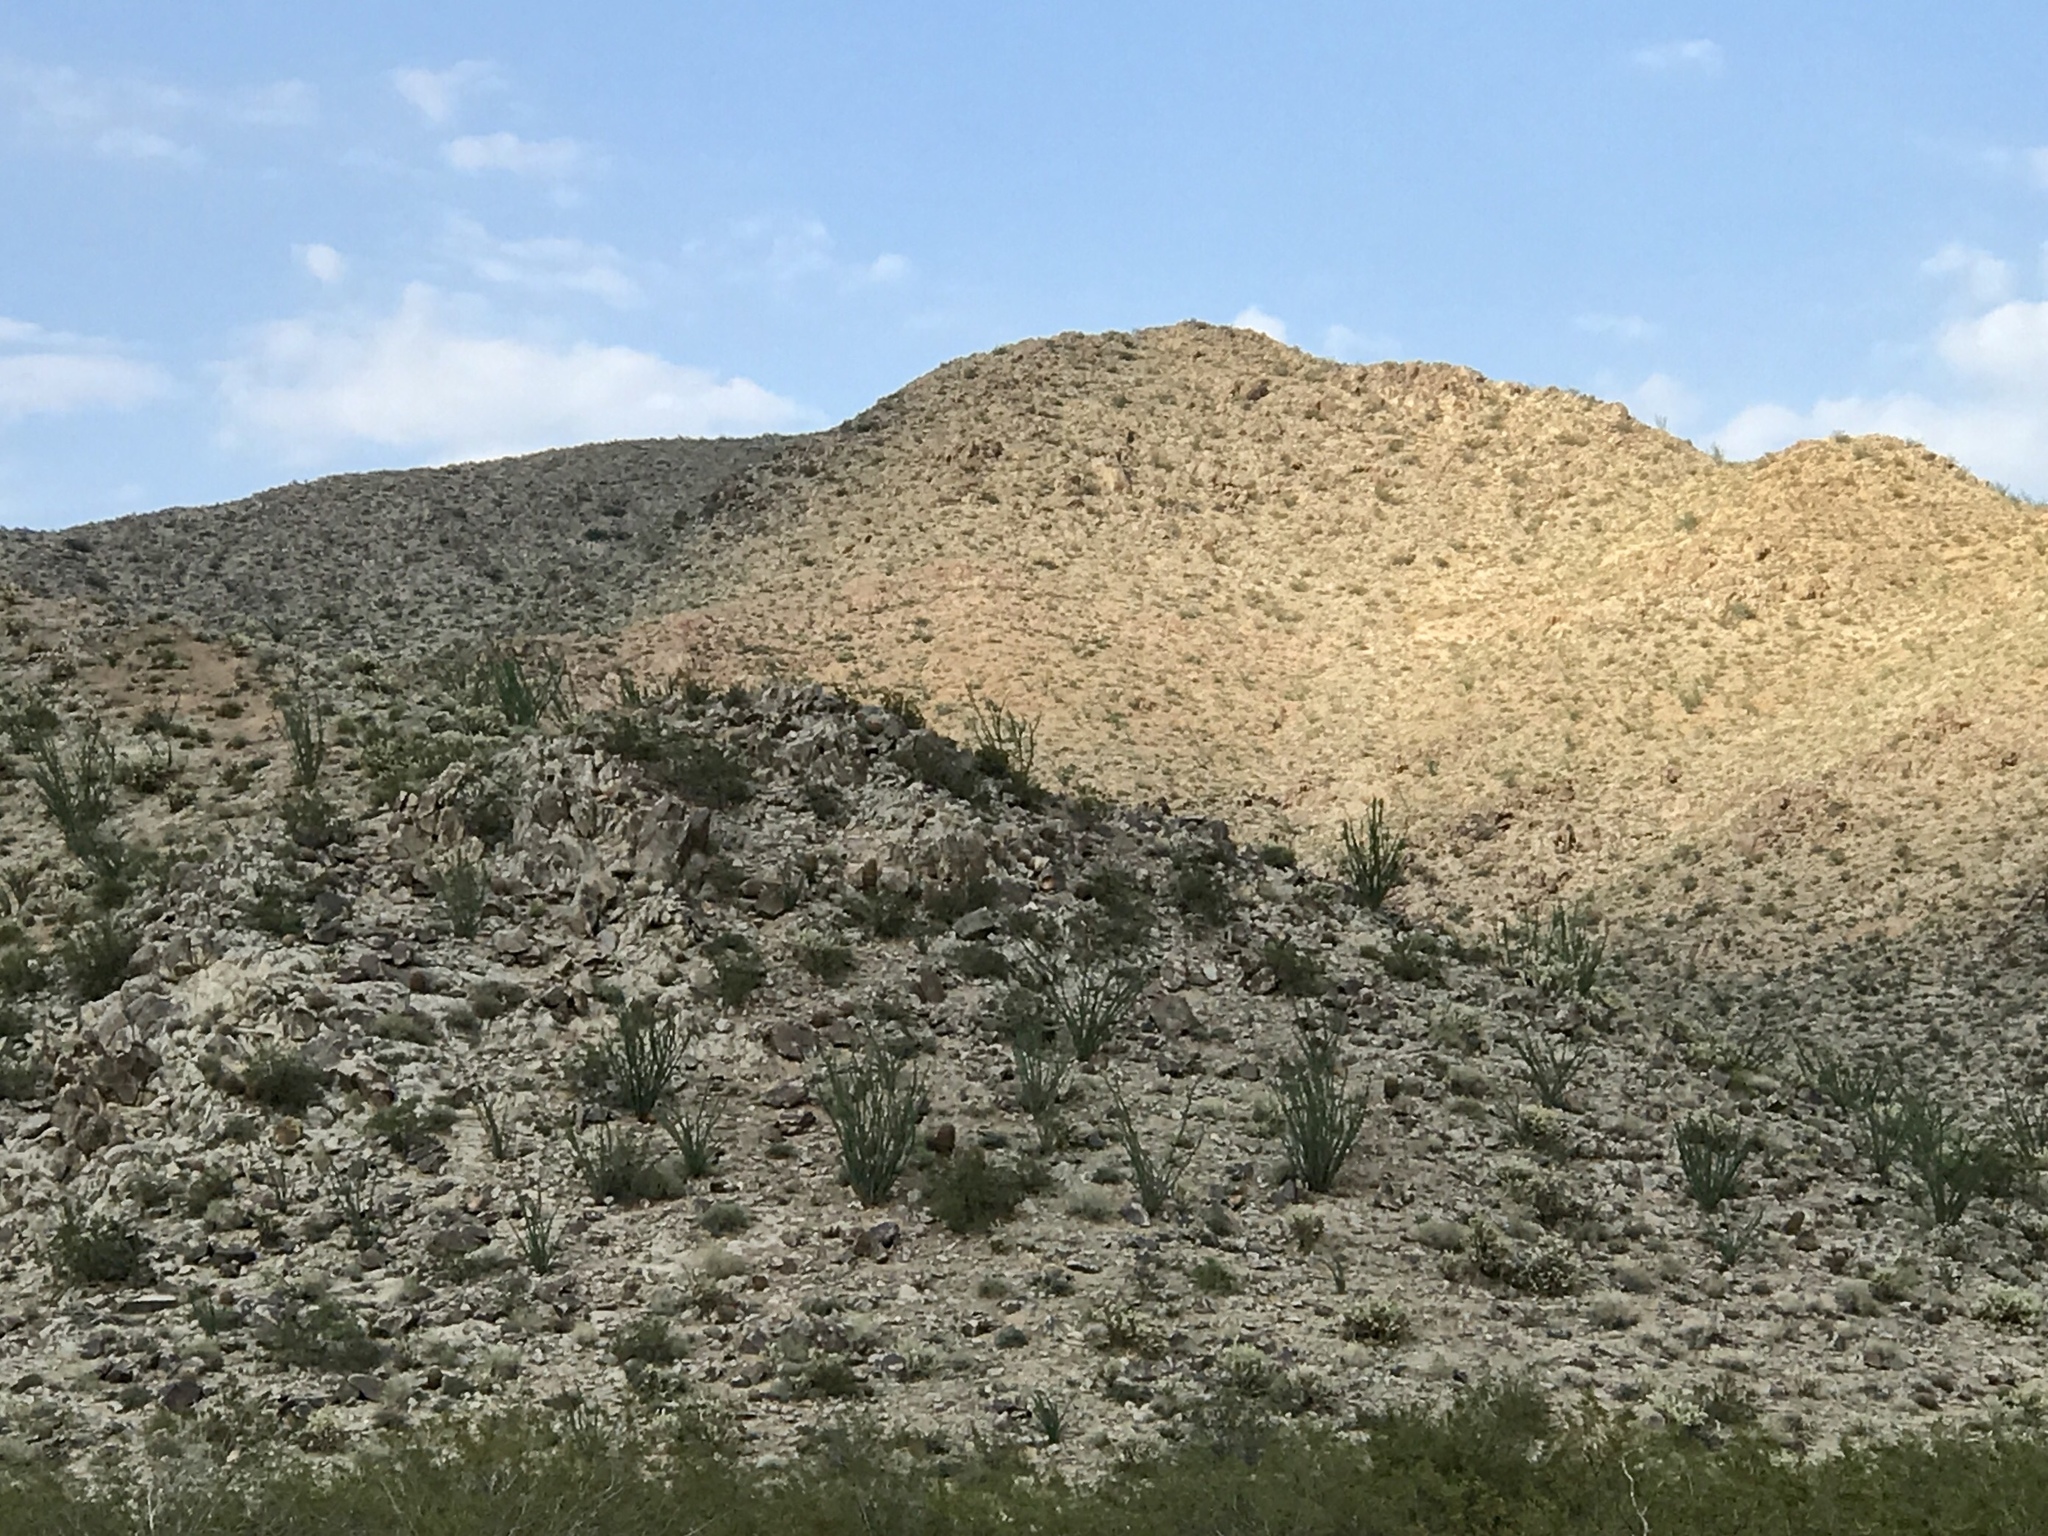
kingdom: Plantae
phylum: Tracheophyta
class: Magnoliopsida
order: Ericales
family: Fouquieriaceae
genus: Fouquieria
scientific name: Fouquieria splendens
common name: Vine-cactus
